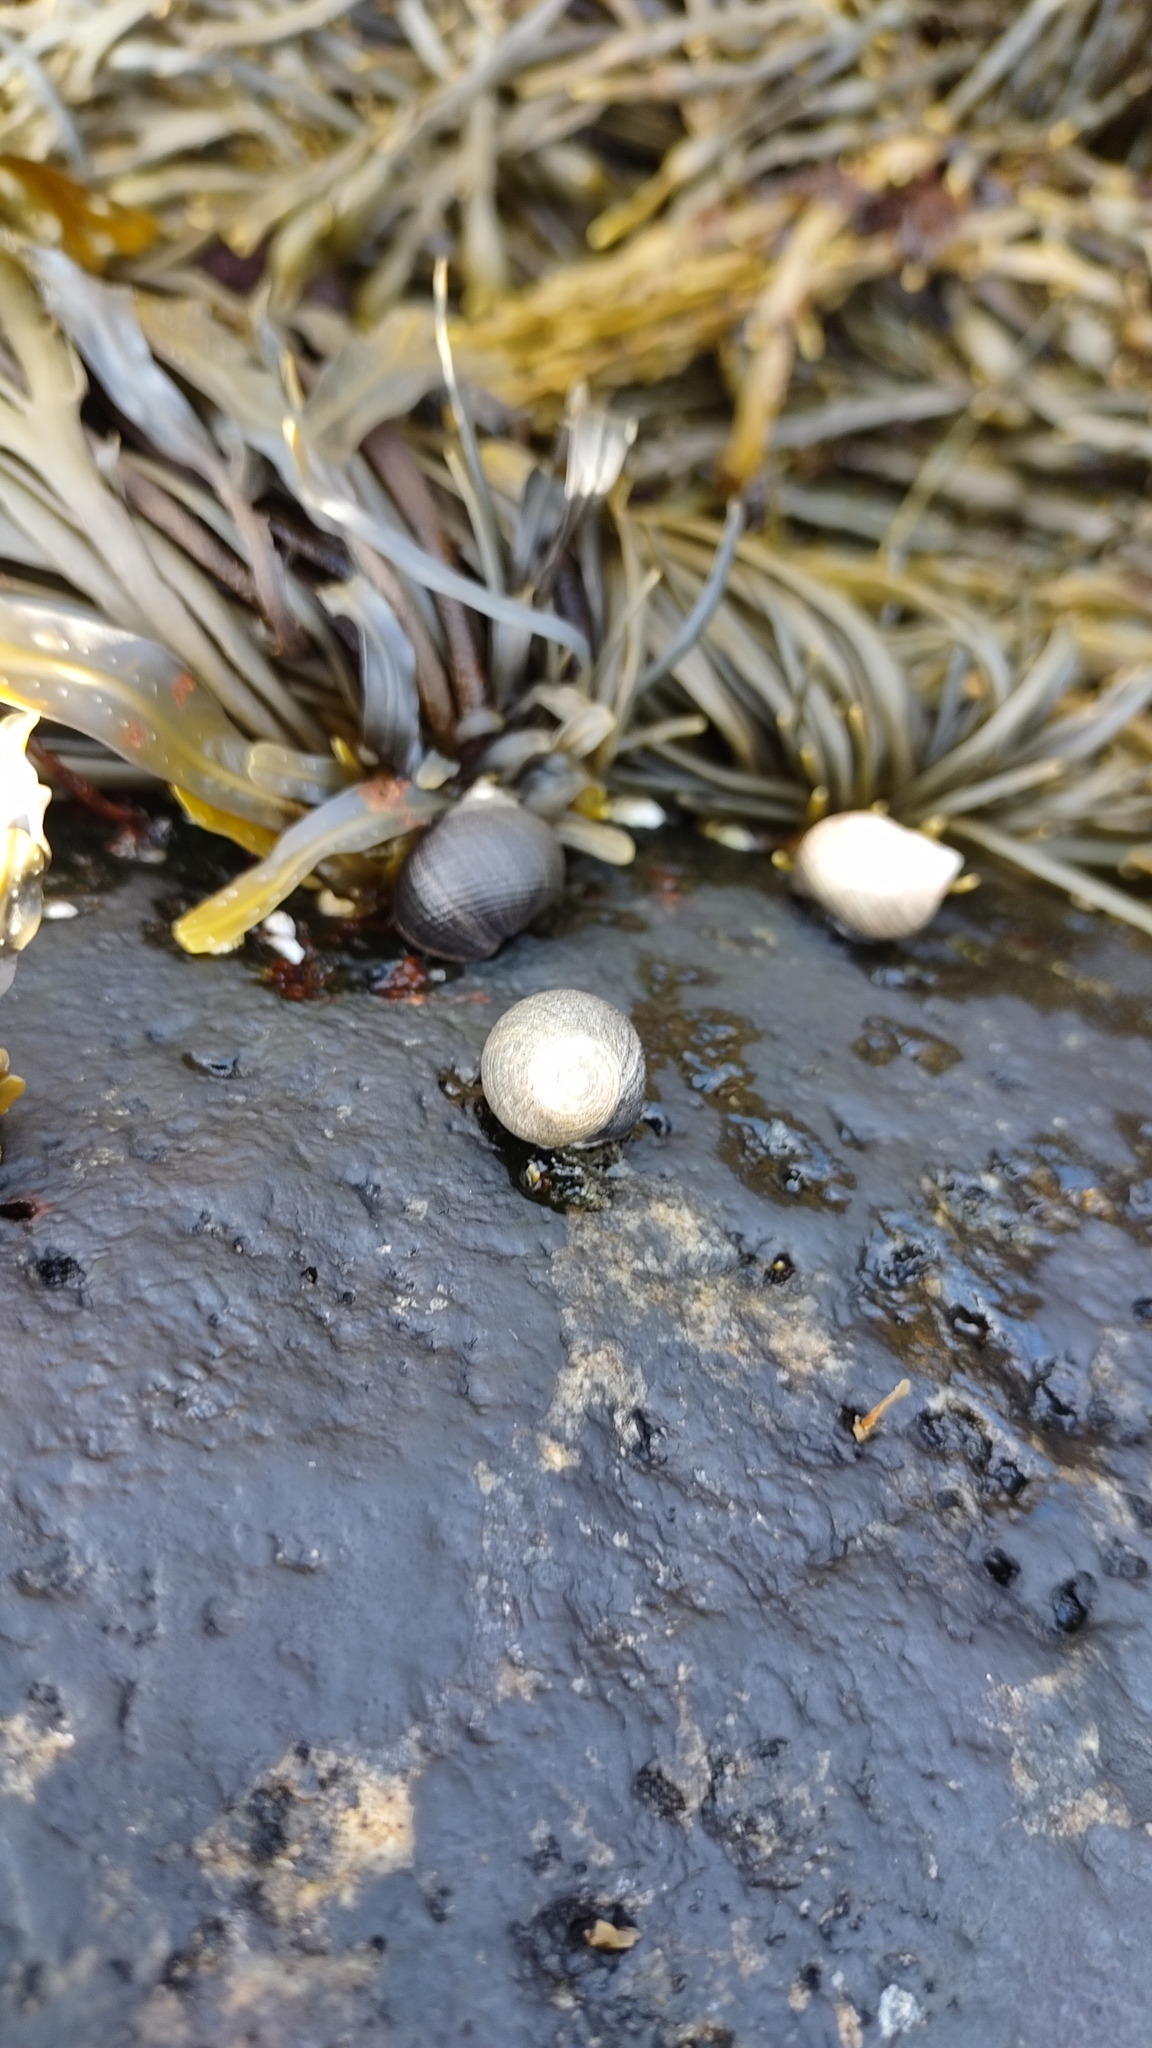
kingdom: Animalia
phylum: Mollusca
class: Gastropoda
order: Littorinimorpha
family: Littorinidae
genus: Littorina
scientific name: Littorina littorea
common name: Common periwinkle
